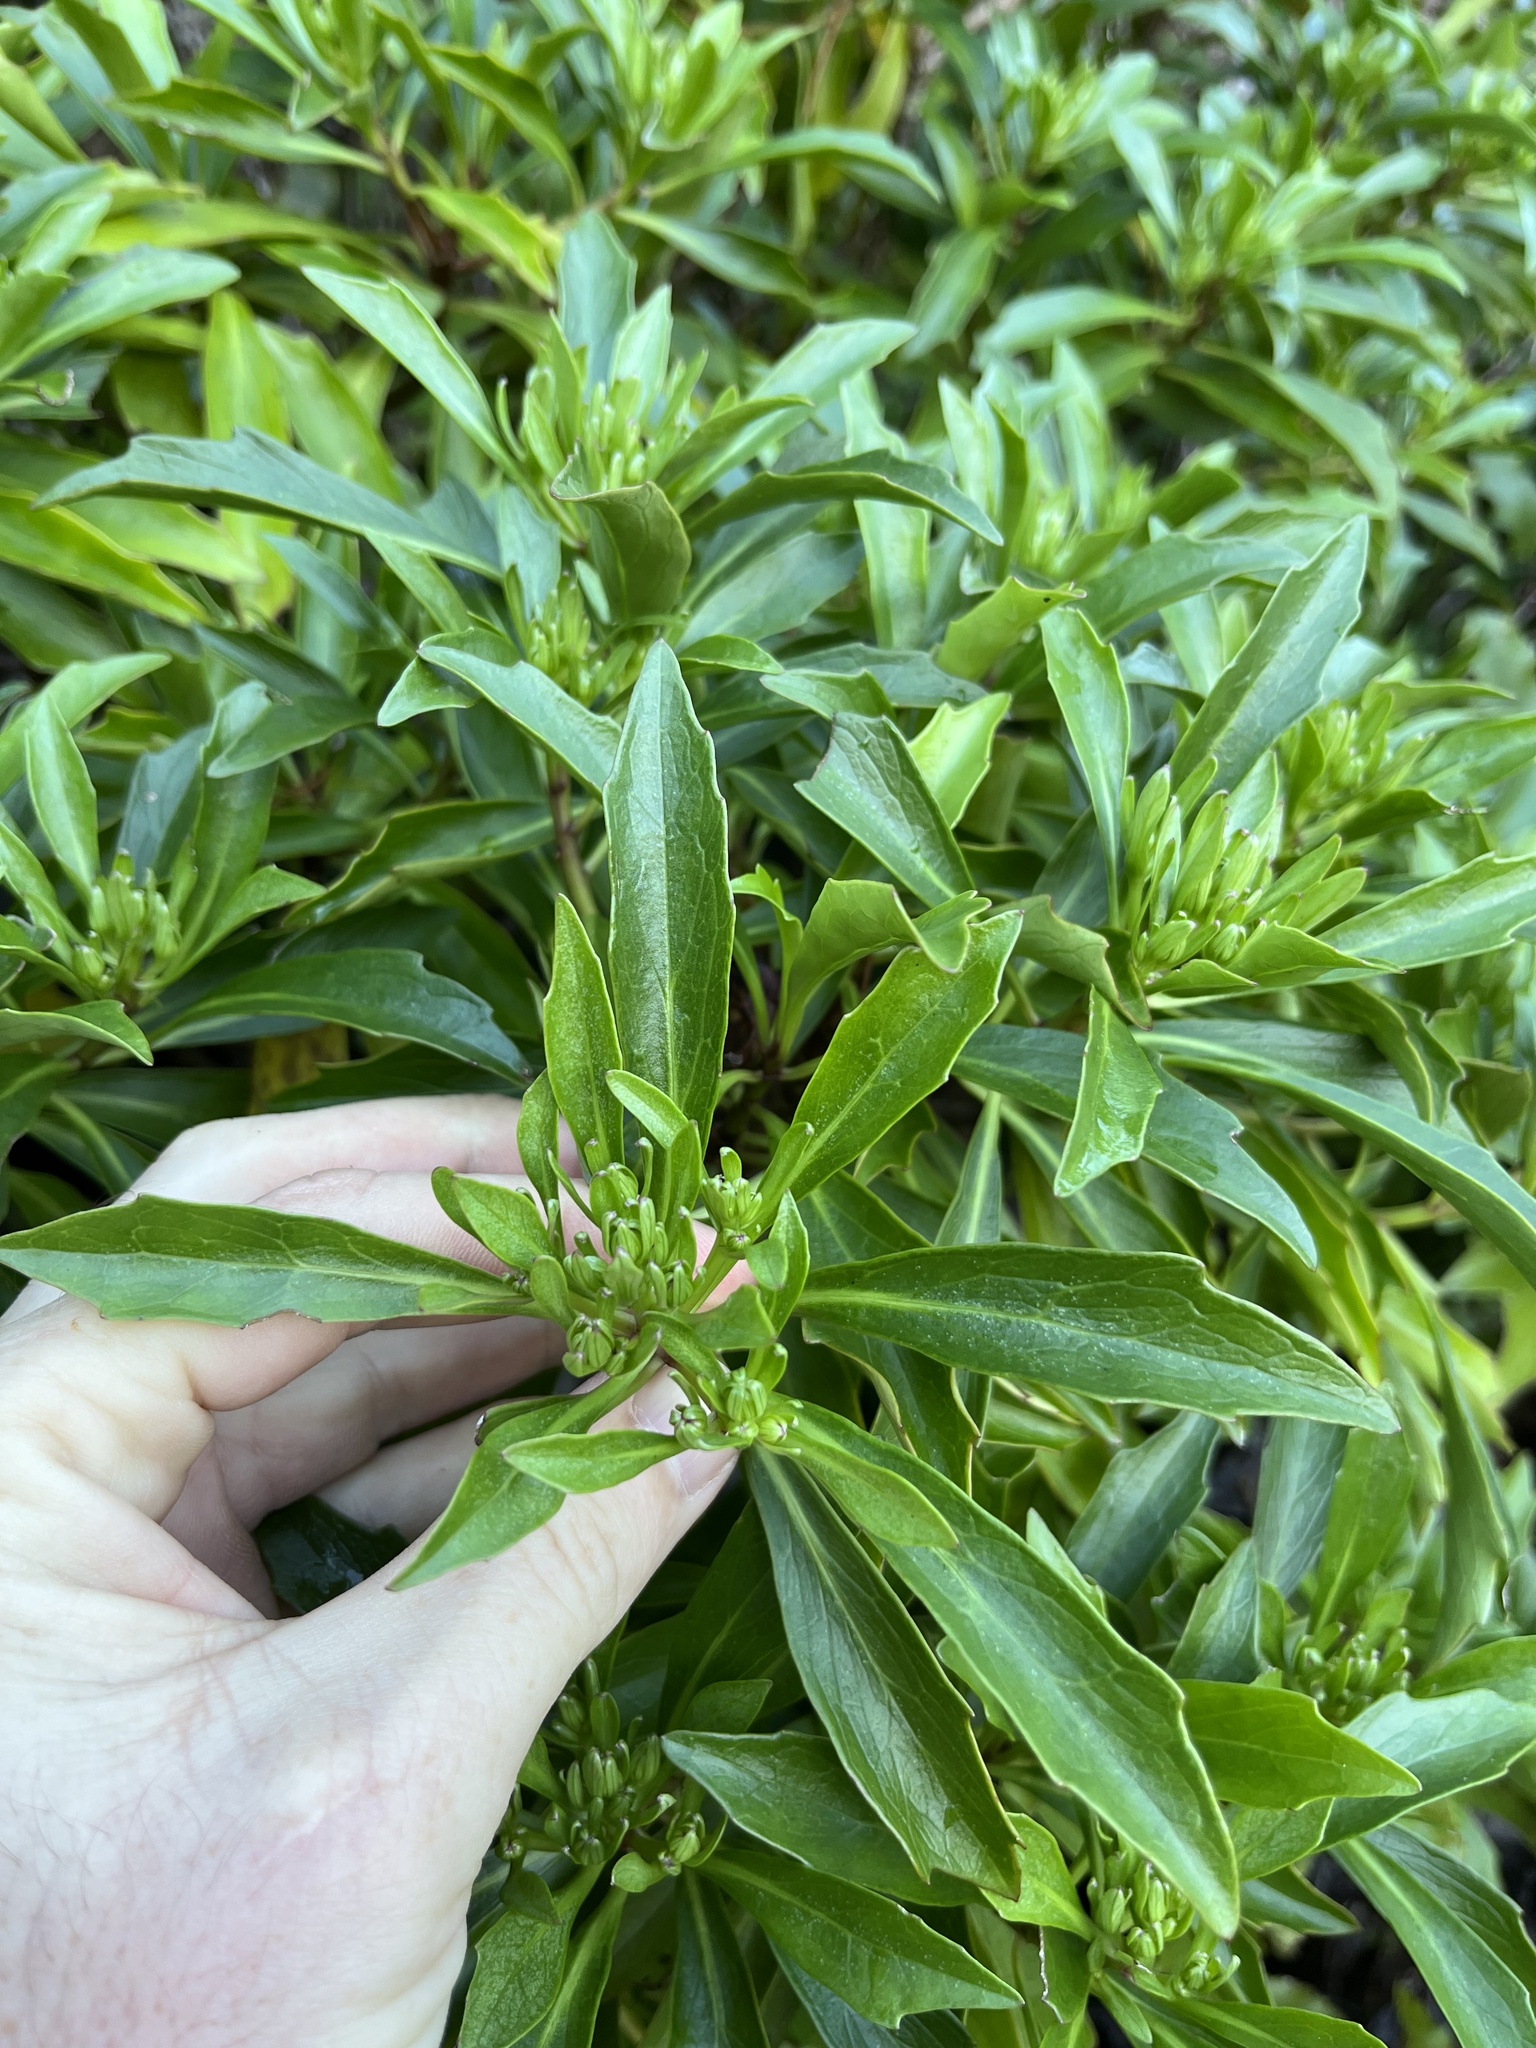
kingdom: Plantae
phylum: Tracheophyta
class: Magnoliopsida
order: Asterales
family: Asteraceae
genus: Brachyglottis
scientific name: Brachyglottis kirkii
